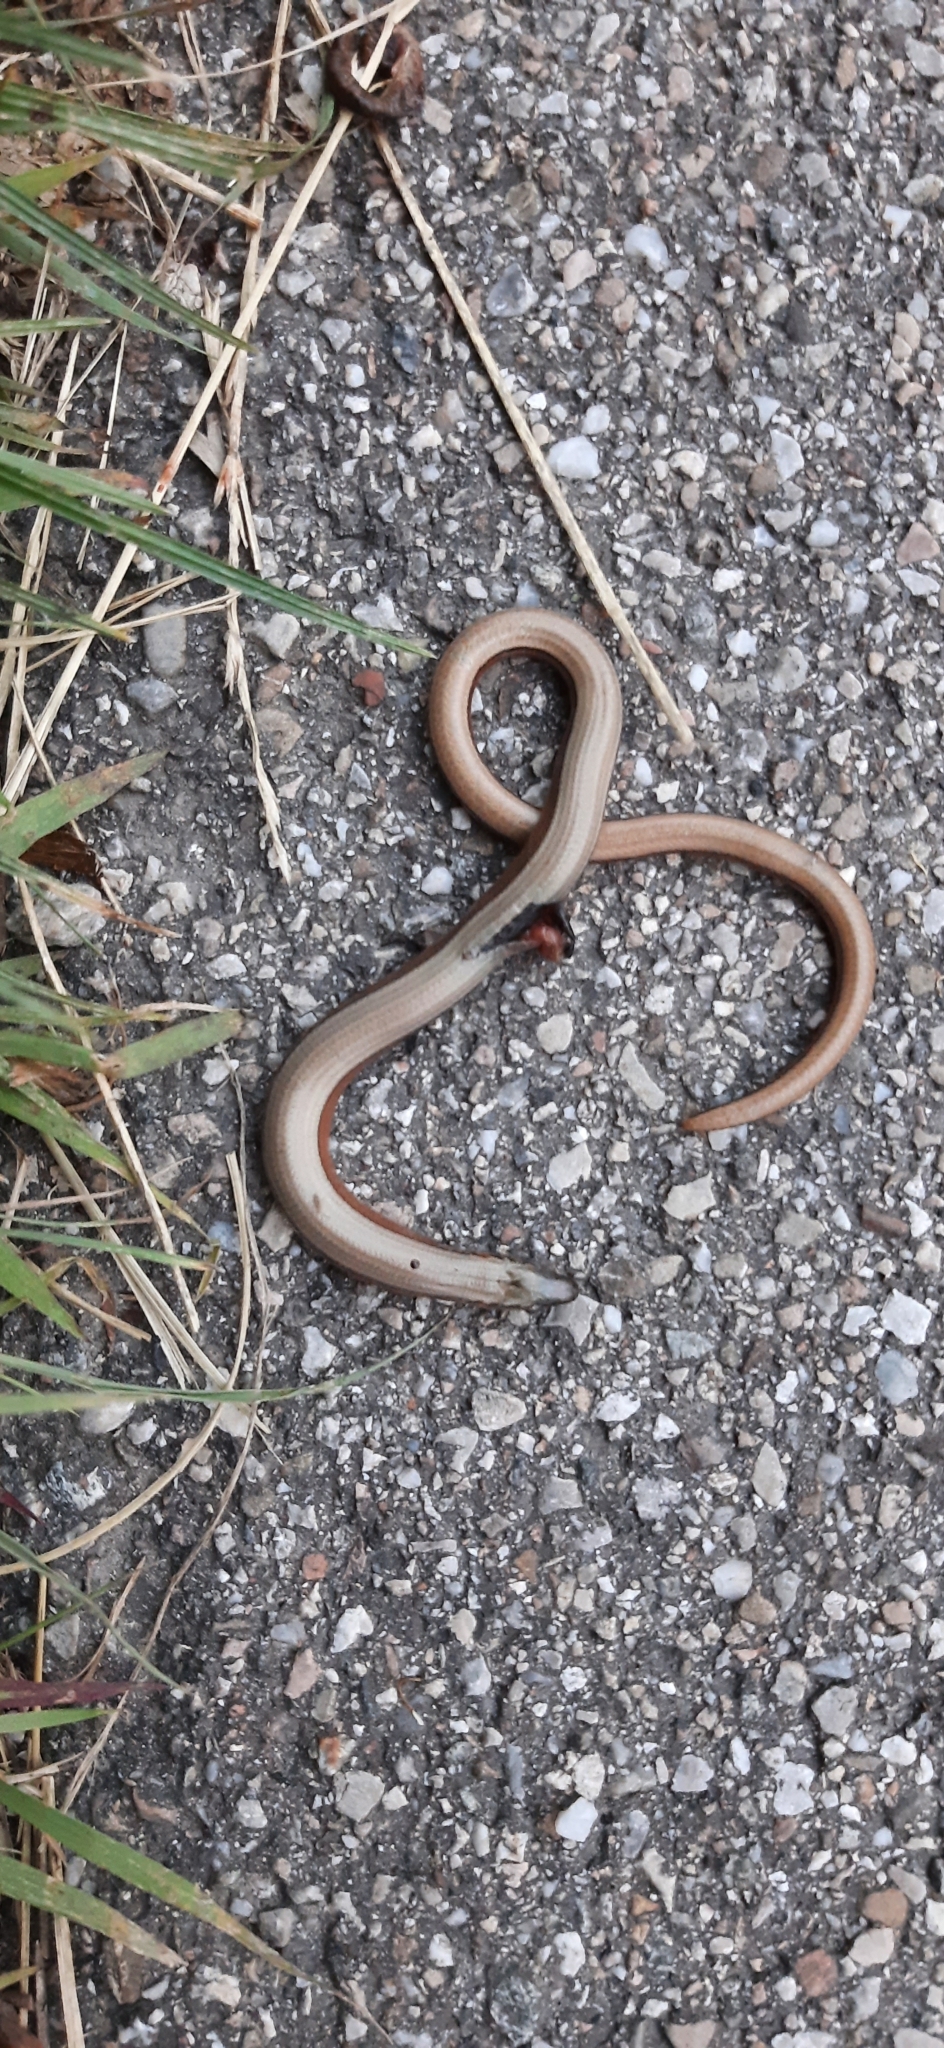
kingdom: Animalia
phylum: Chordata
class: Squamata
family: Anguidae
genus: Anguis
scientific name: Anguis fragilis
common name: Slow worm
